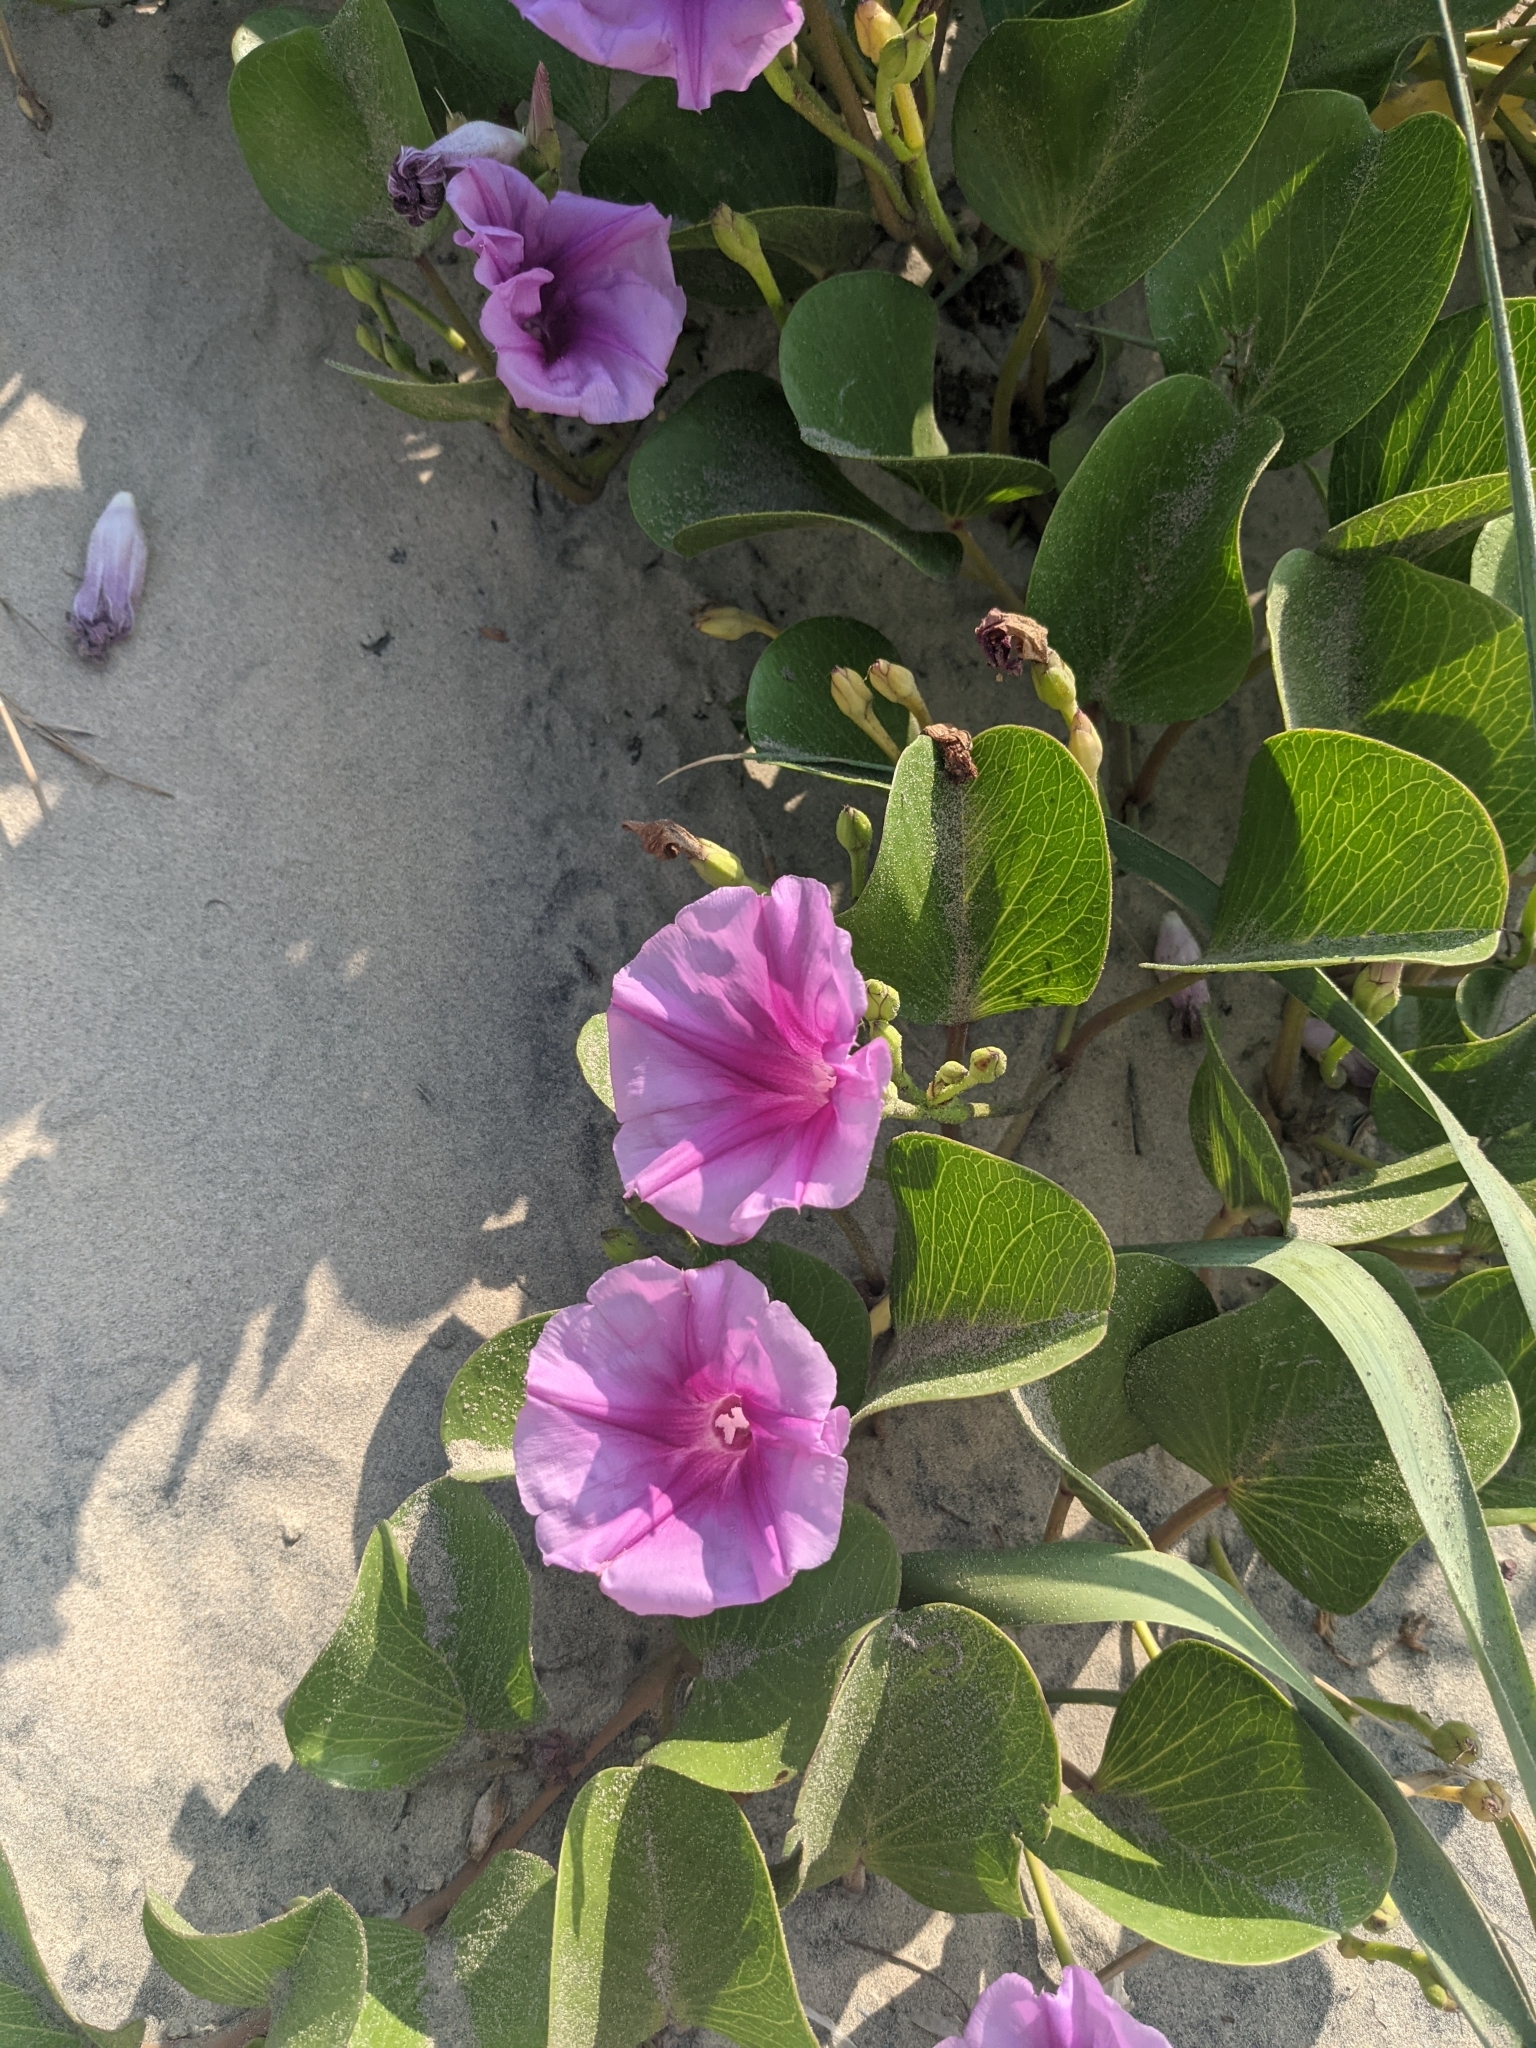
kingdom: Plantae
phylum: Tracheophyta
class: Magnoliopsida
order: Solanales
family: Convolvulaceae
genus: Ipomoea
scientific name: Ipomoea pes-caprae
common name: Beach morning glory
